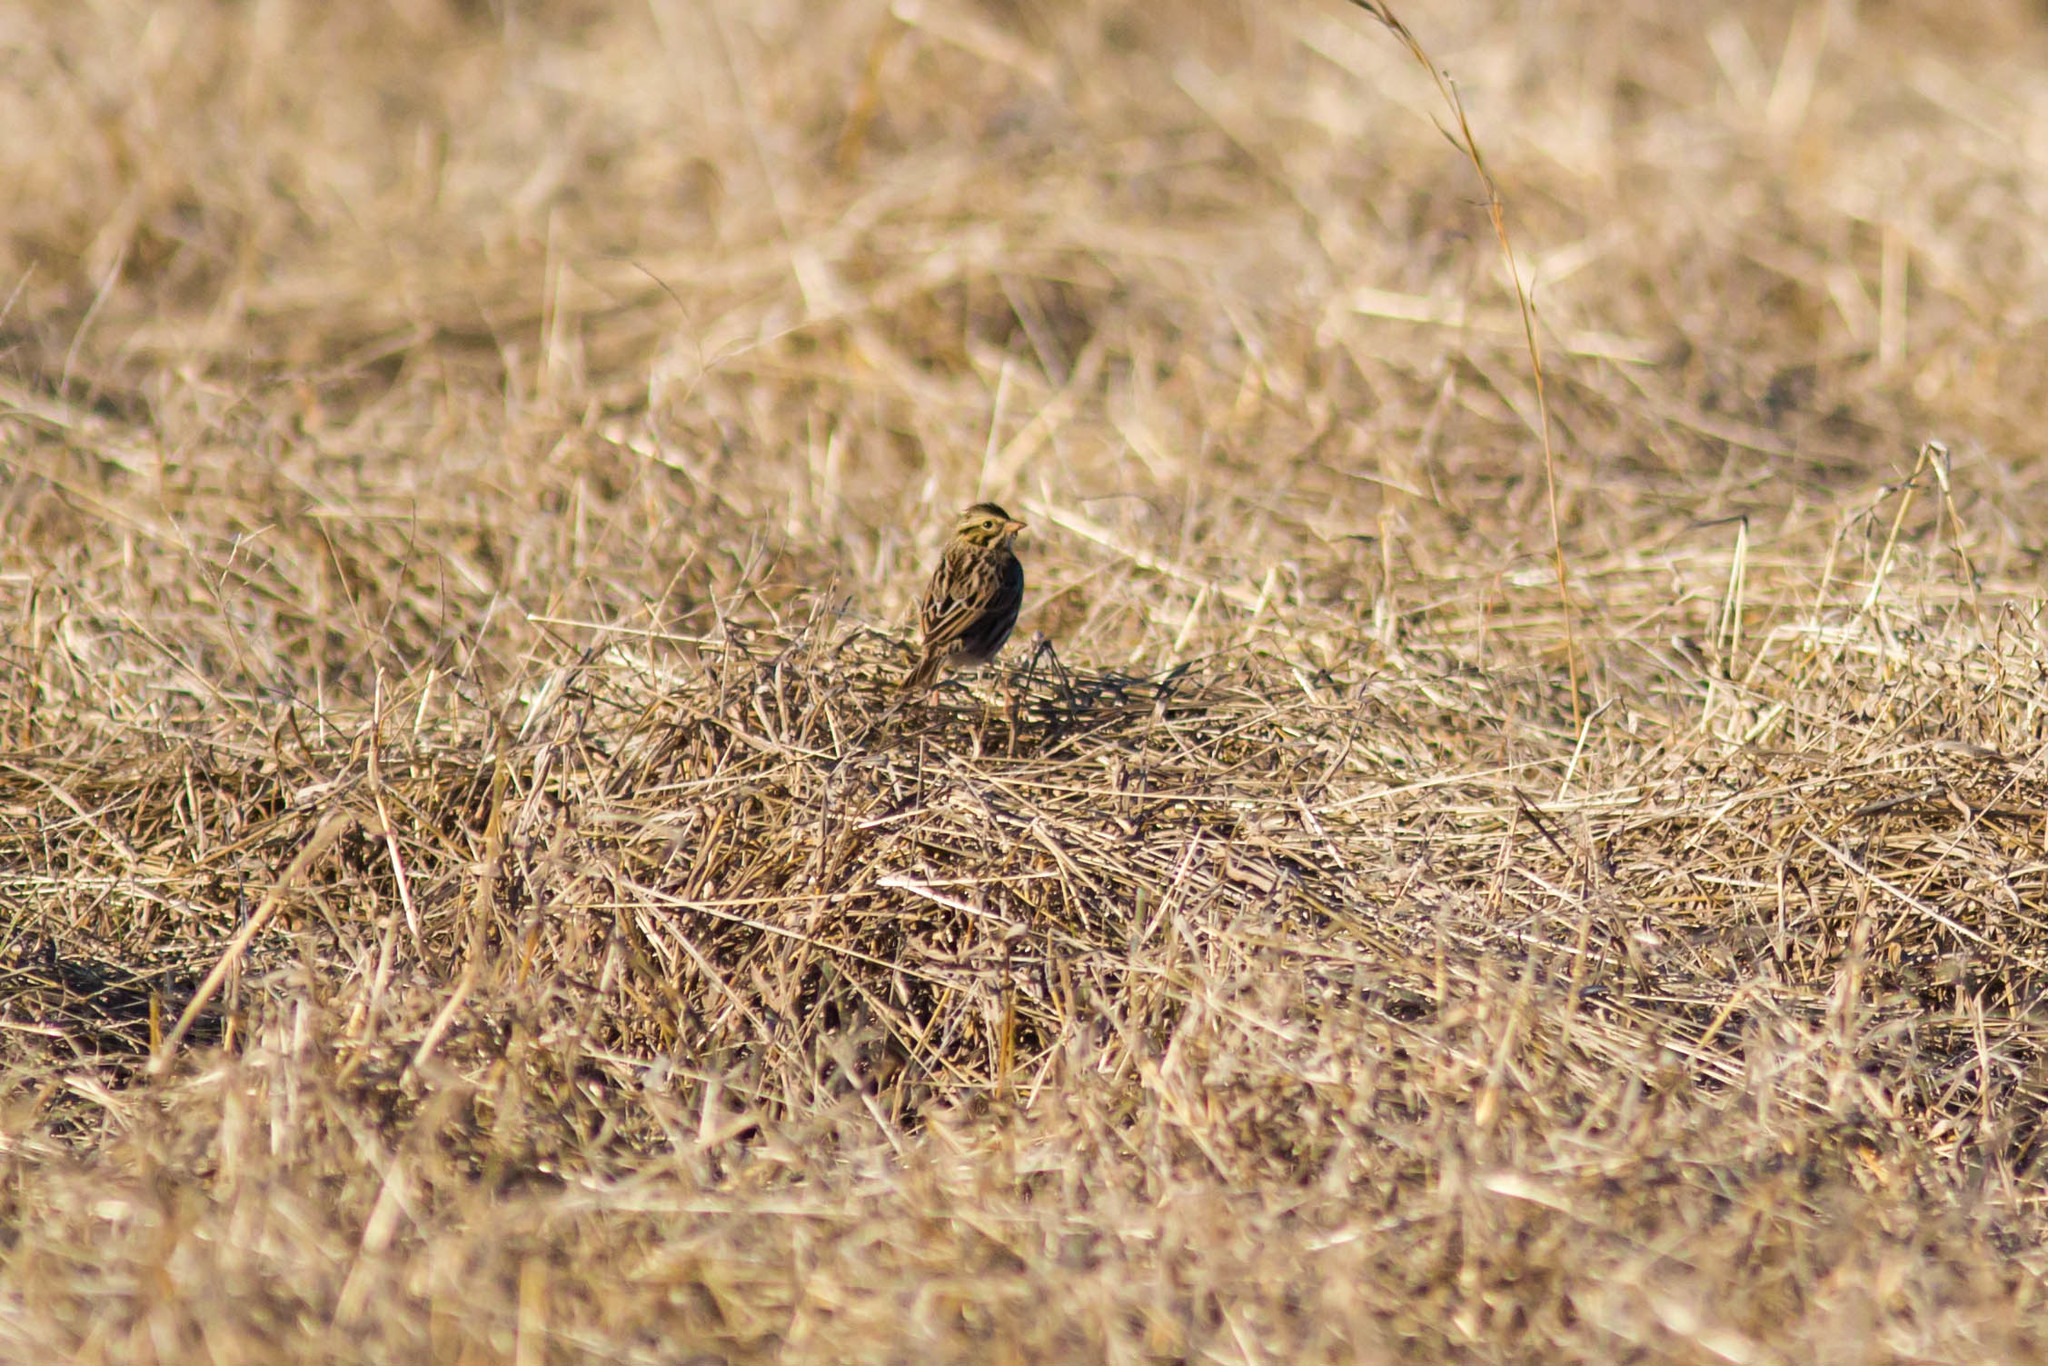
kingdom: Animalia
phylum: Chordata
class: Aves
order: Passeriformes
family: Passerellidae
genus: Passerculus
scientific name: Passerculus sandwichensis
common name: Savannah sparrow
